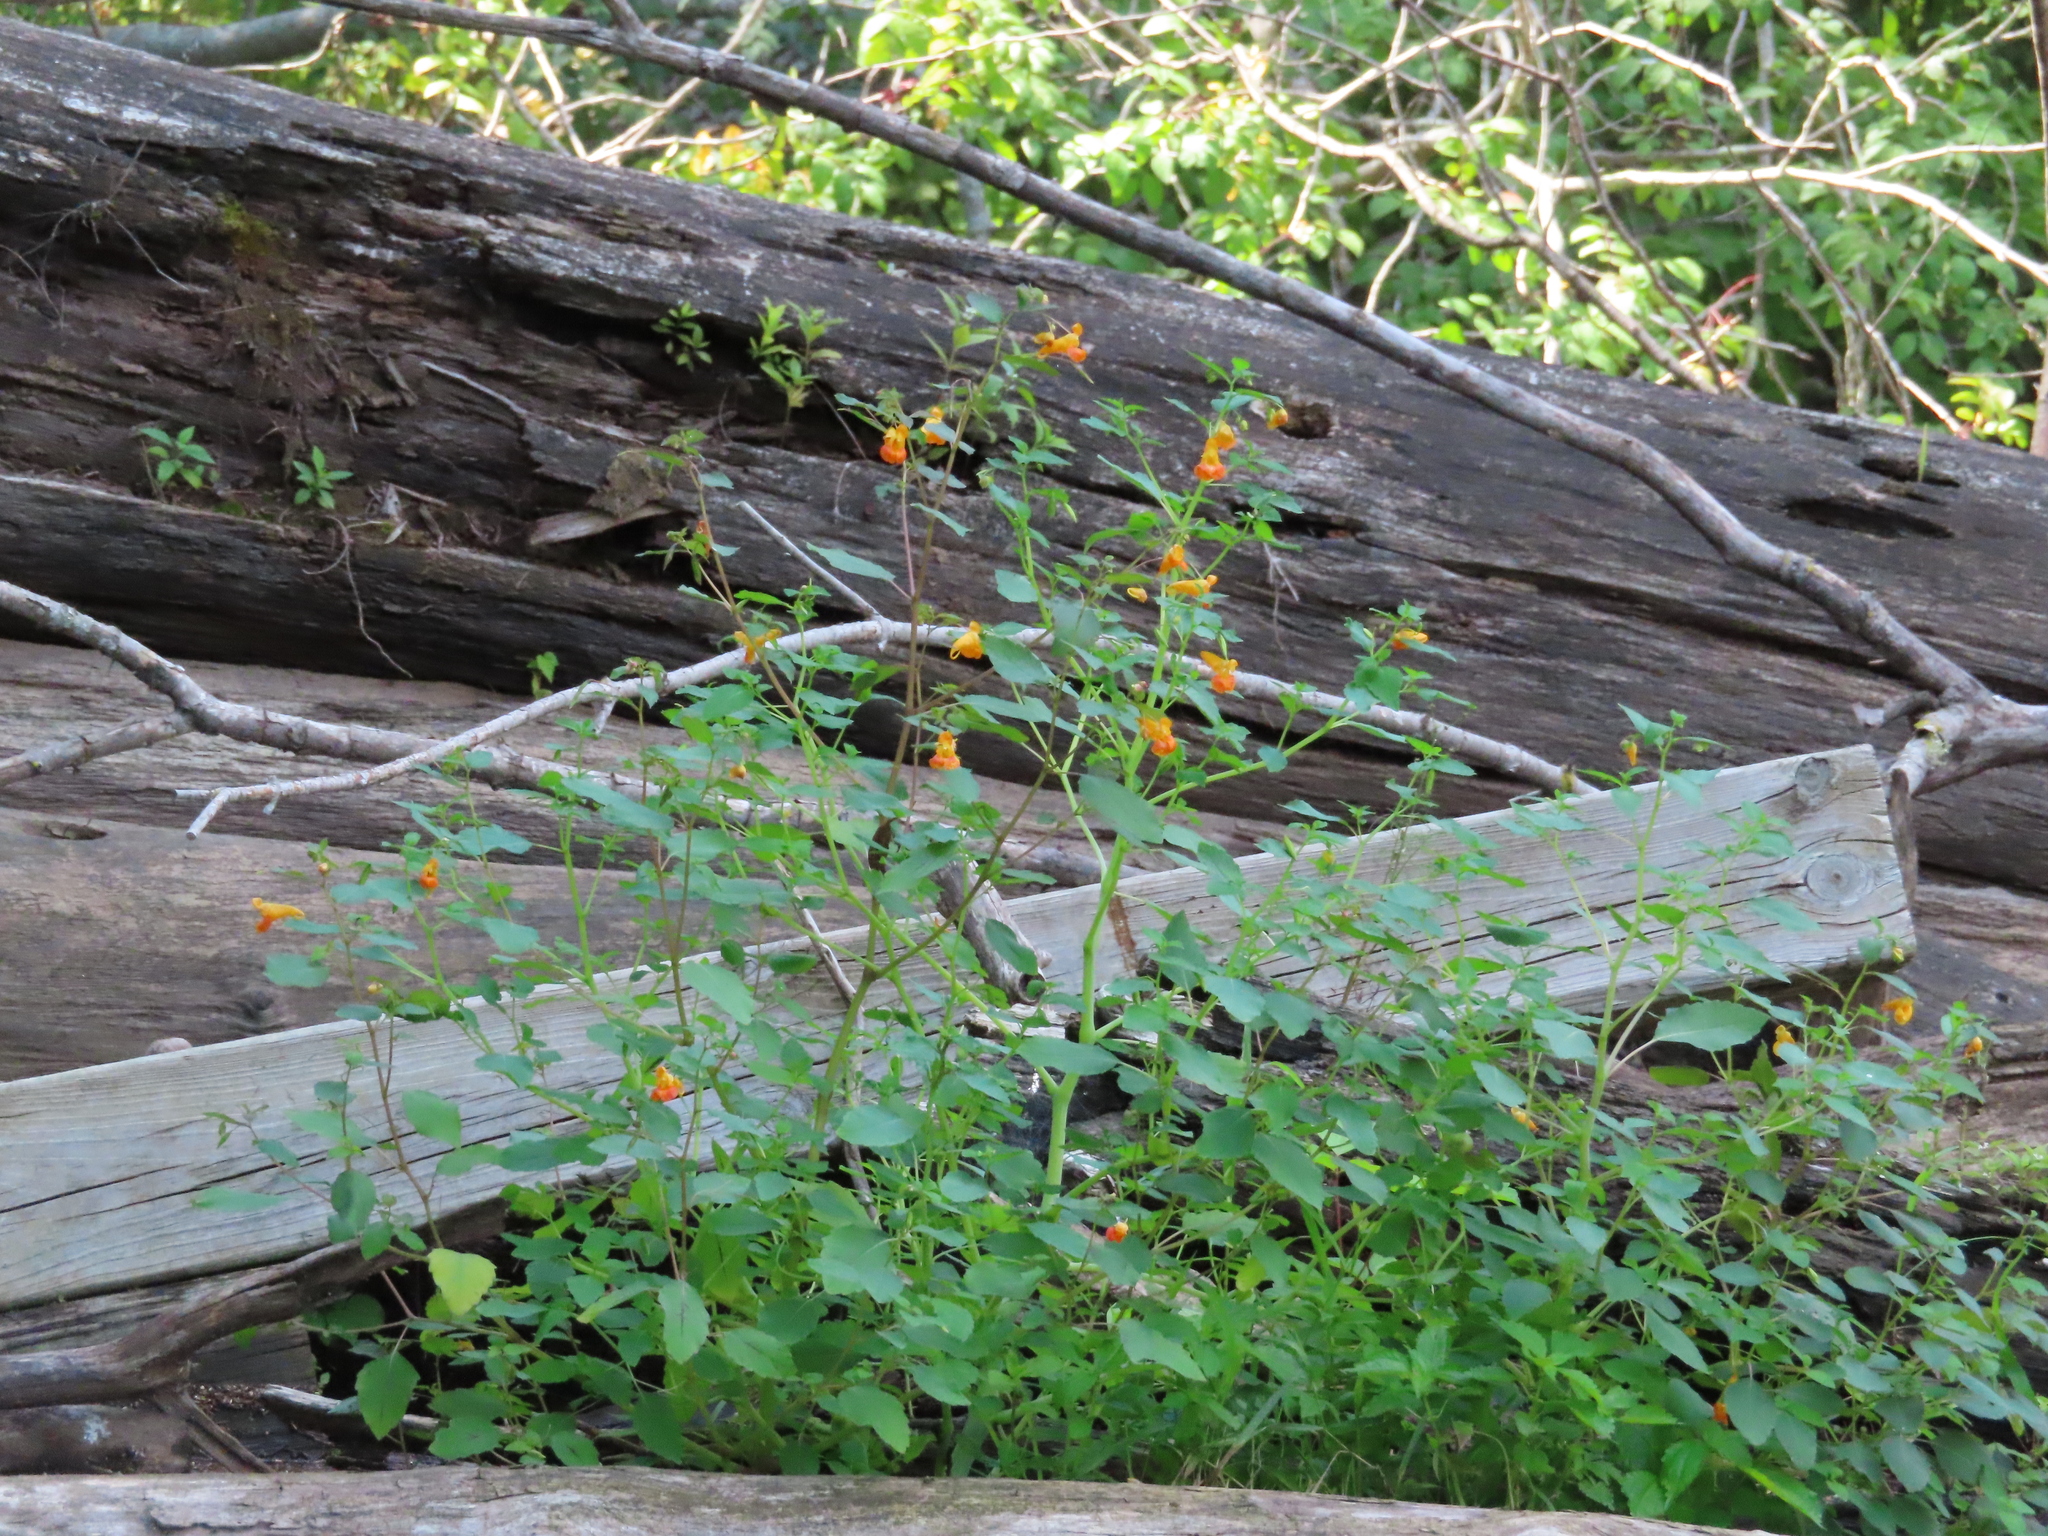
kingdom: Plantae
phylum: Tracheophyta
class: Magnoliopsida
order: Ericales
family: Balsaminaceae
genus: Impatiens
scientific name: Impatiens capensis
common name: Orange balsam
